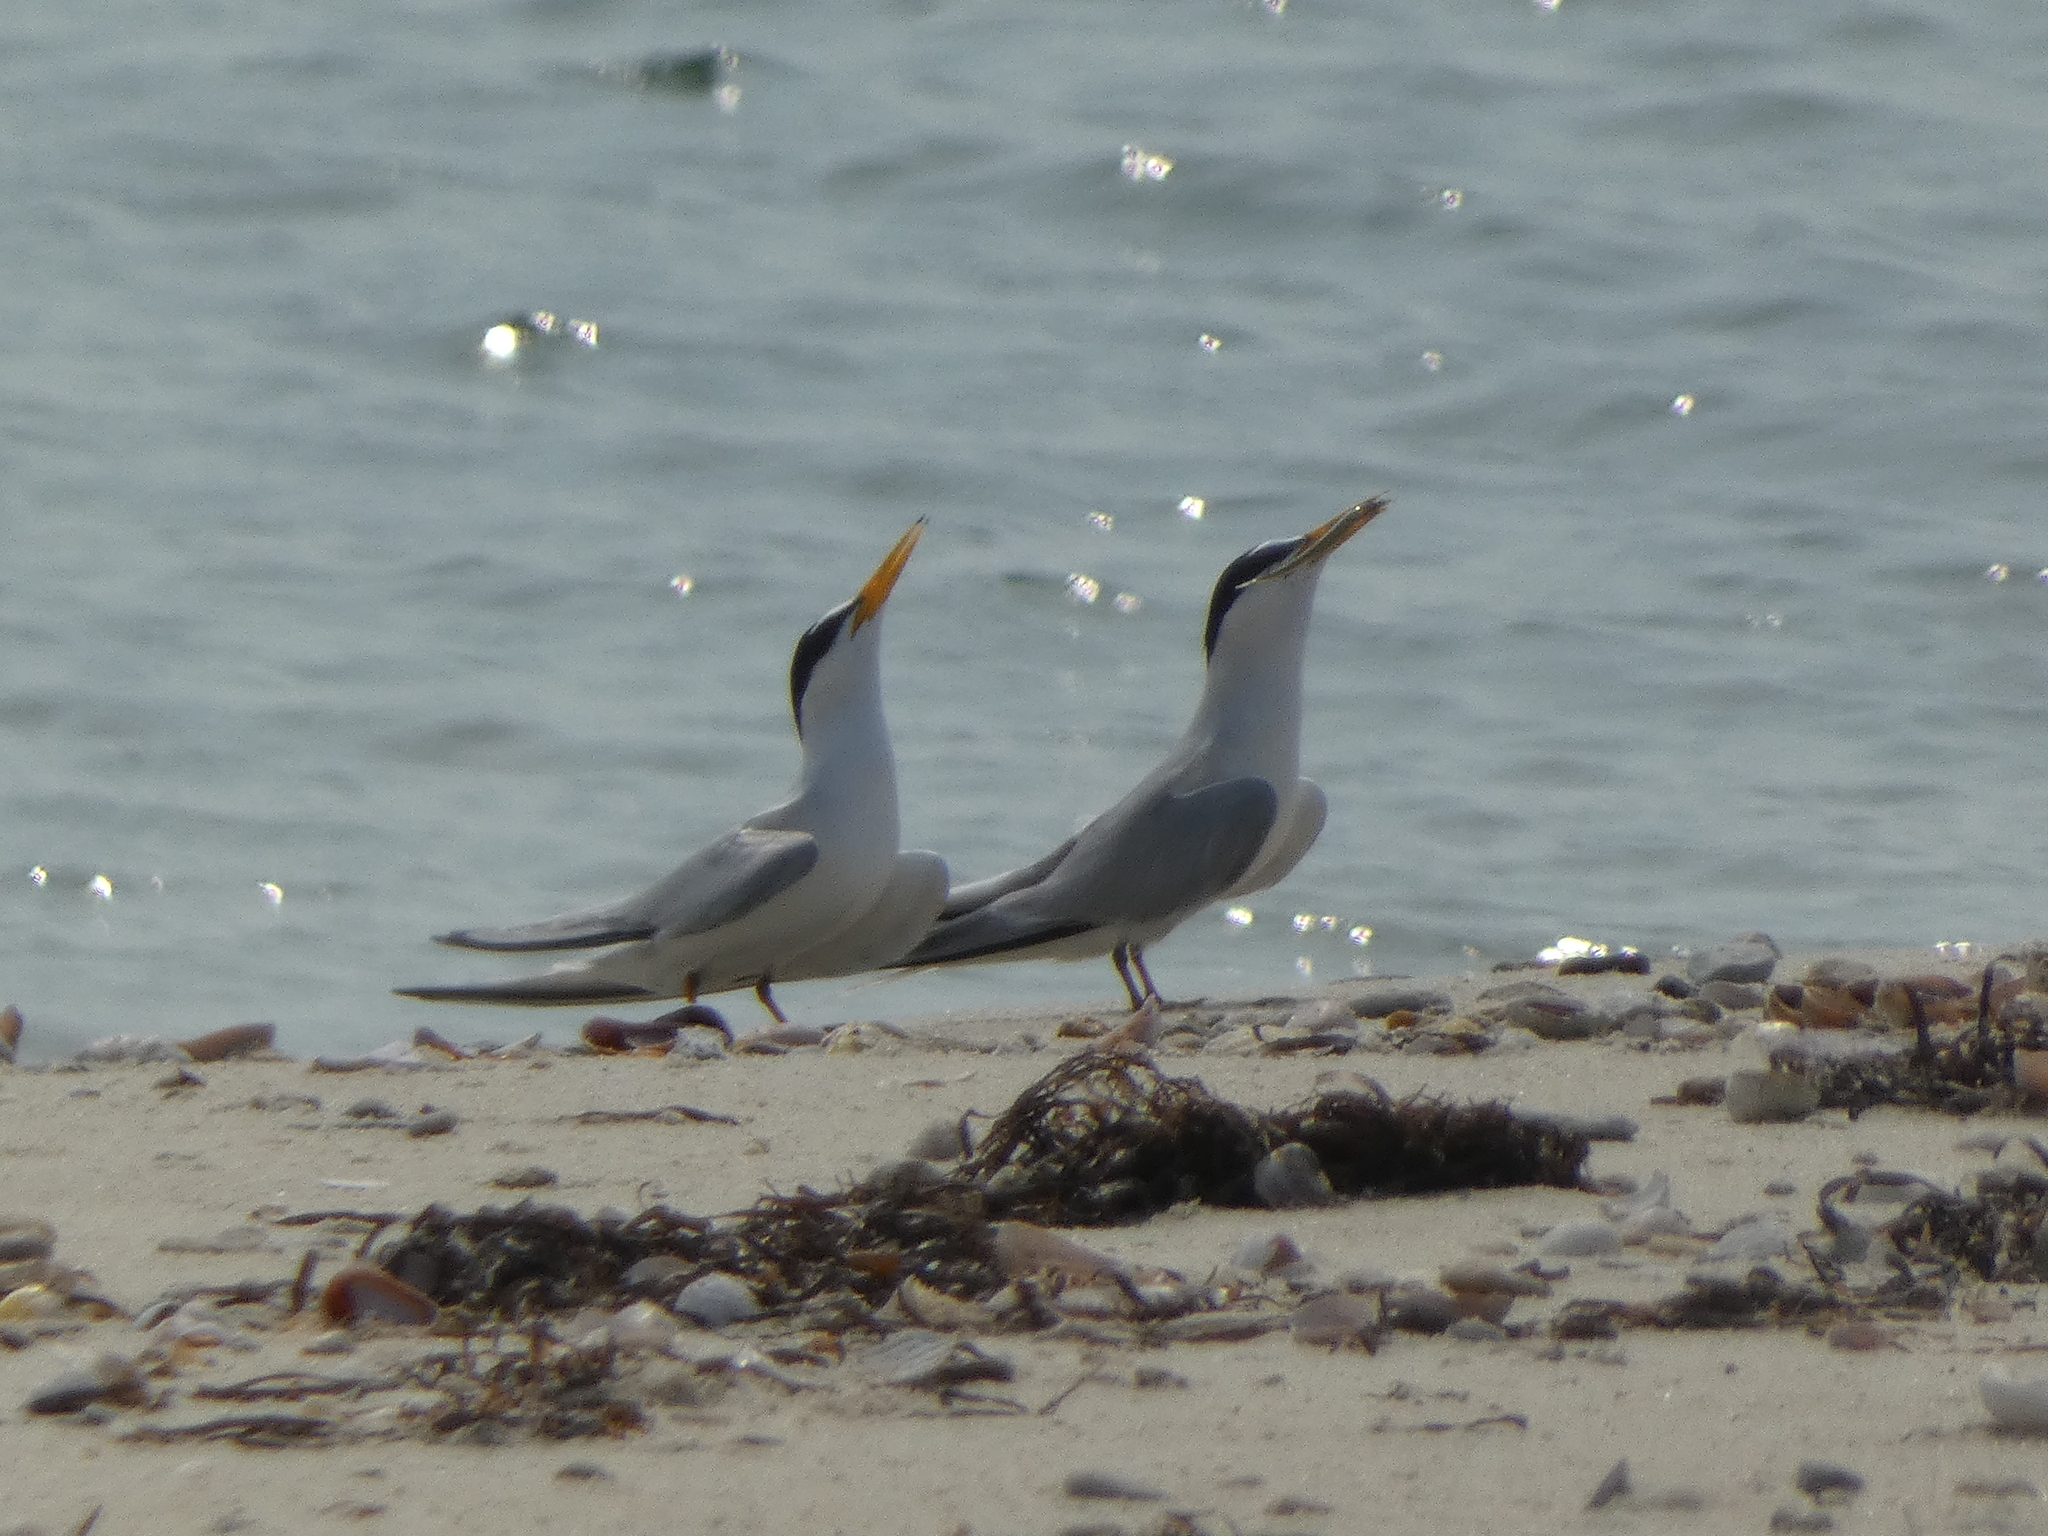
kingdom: Animalia
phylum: Chordata
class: Aves
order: Charadriiformes
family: Laridae
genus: Sternula
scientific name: Sternula antillarum
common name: Least tern
